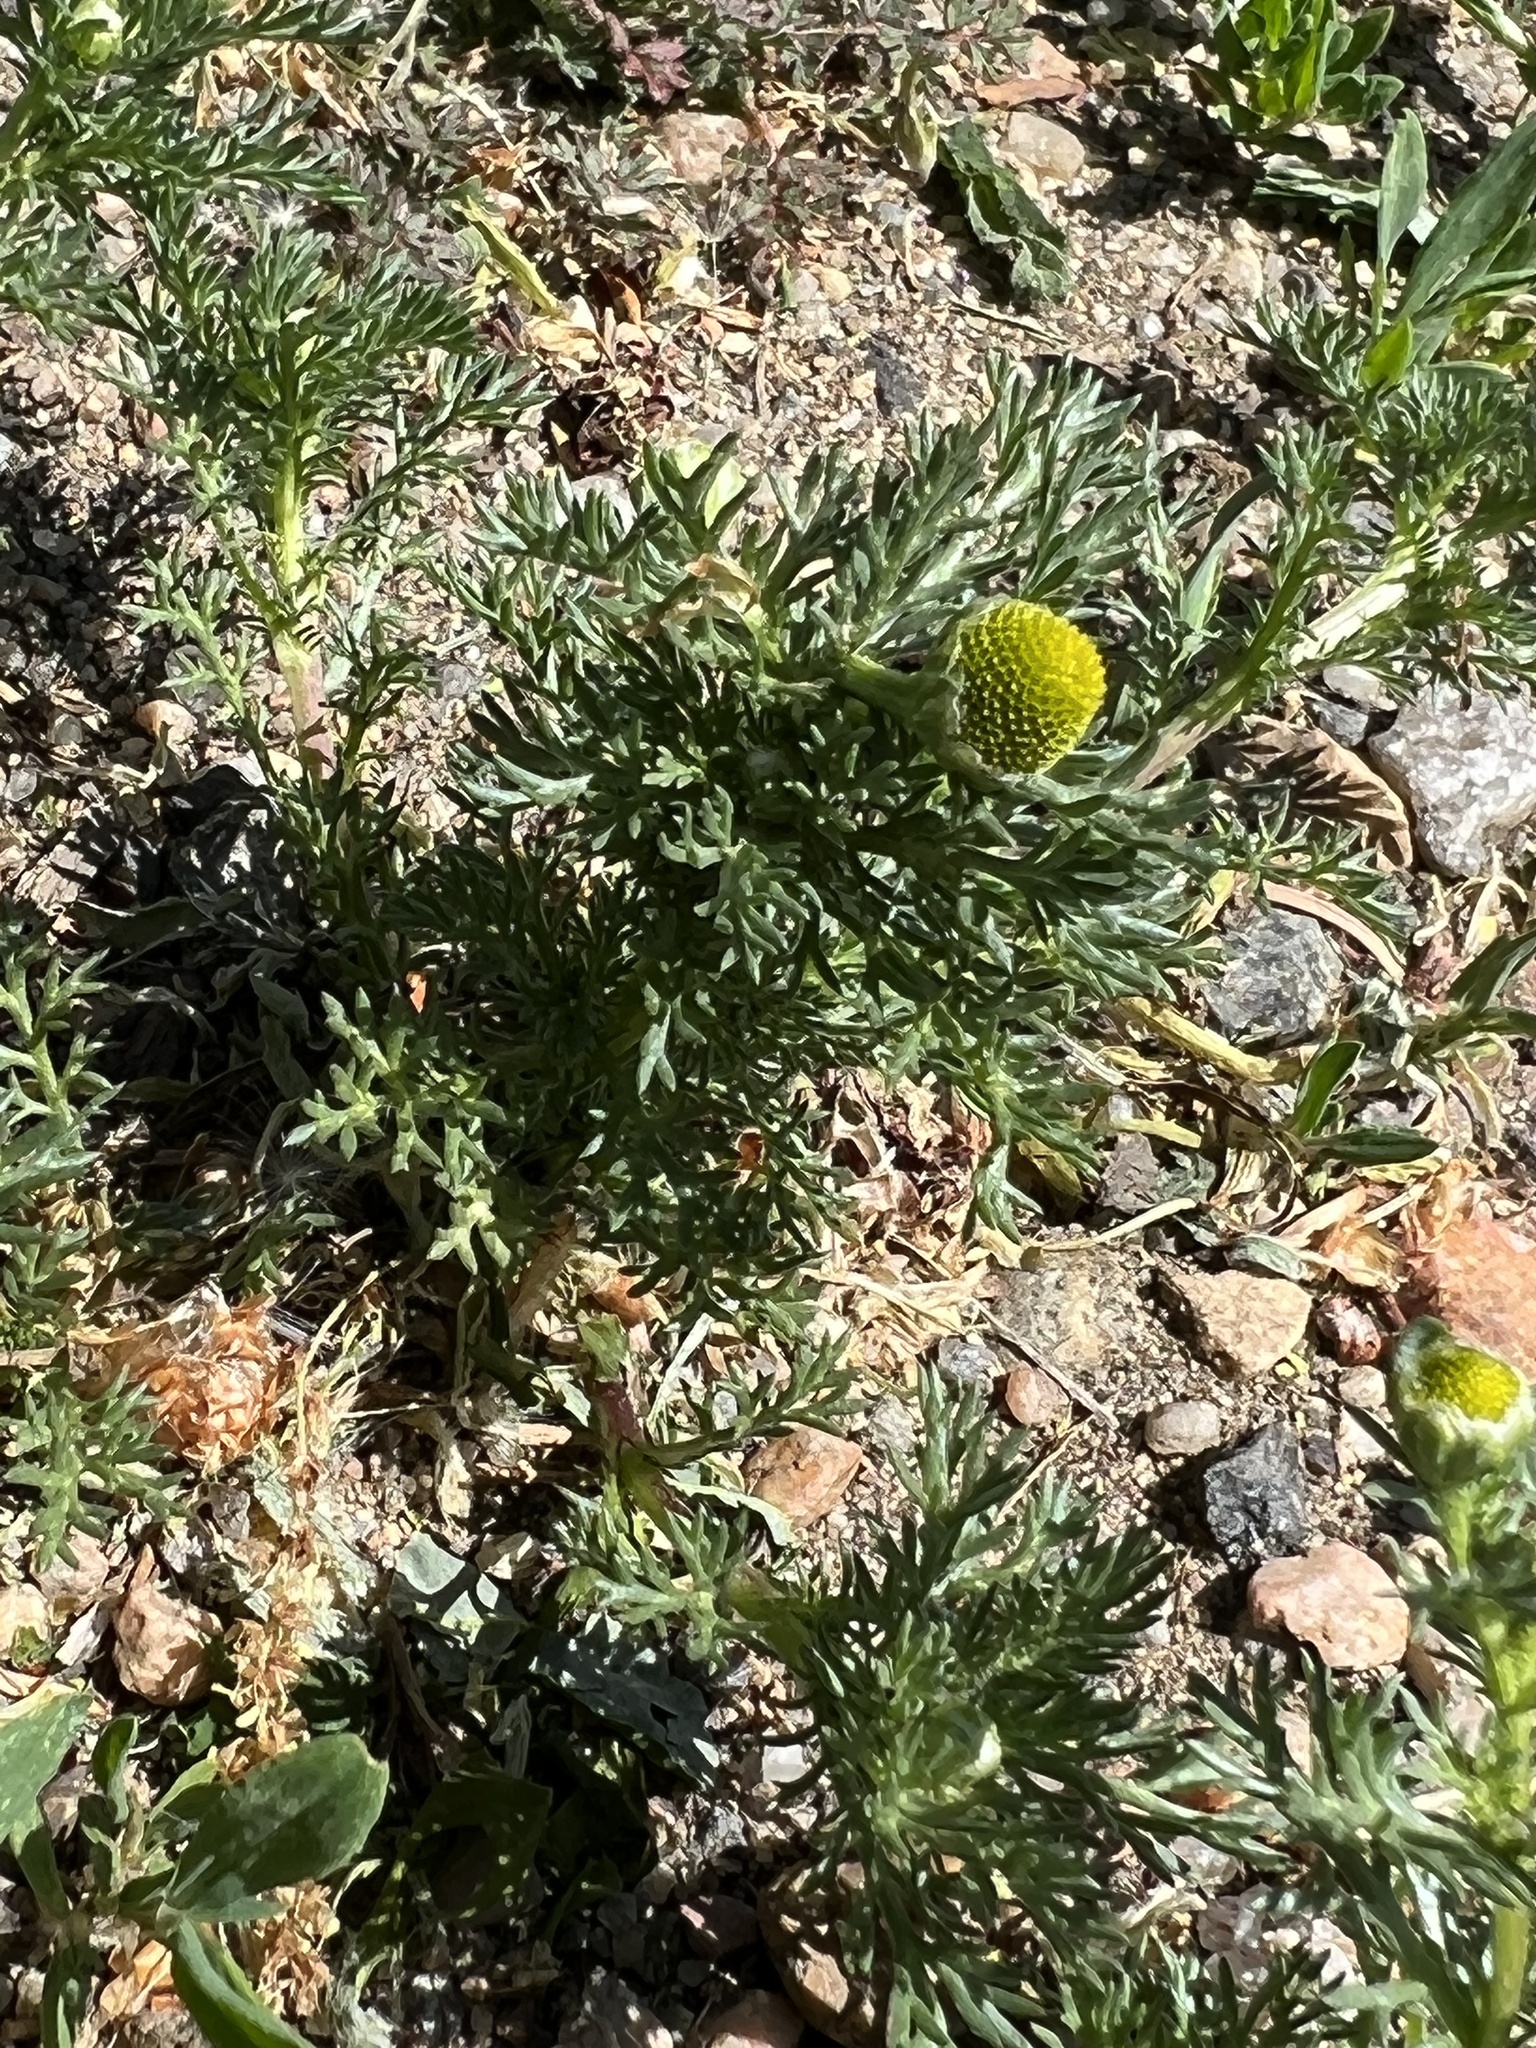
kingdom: Plantae
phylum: Tracheophyta
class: Magnoliopsida
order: Asterales
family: Asteraceae
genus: Matricaria
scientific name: Matricaria discoidea
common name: Disc mayweed
